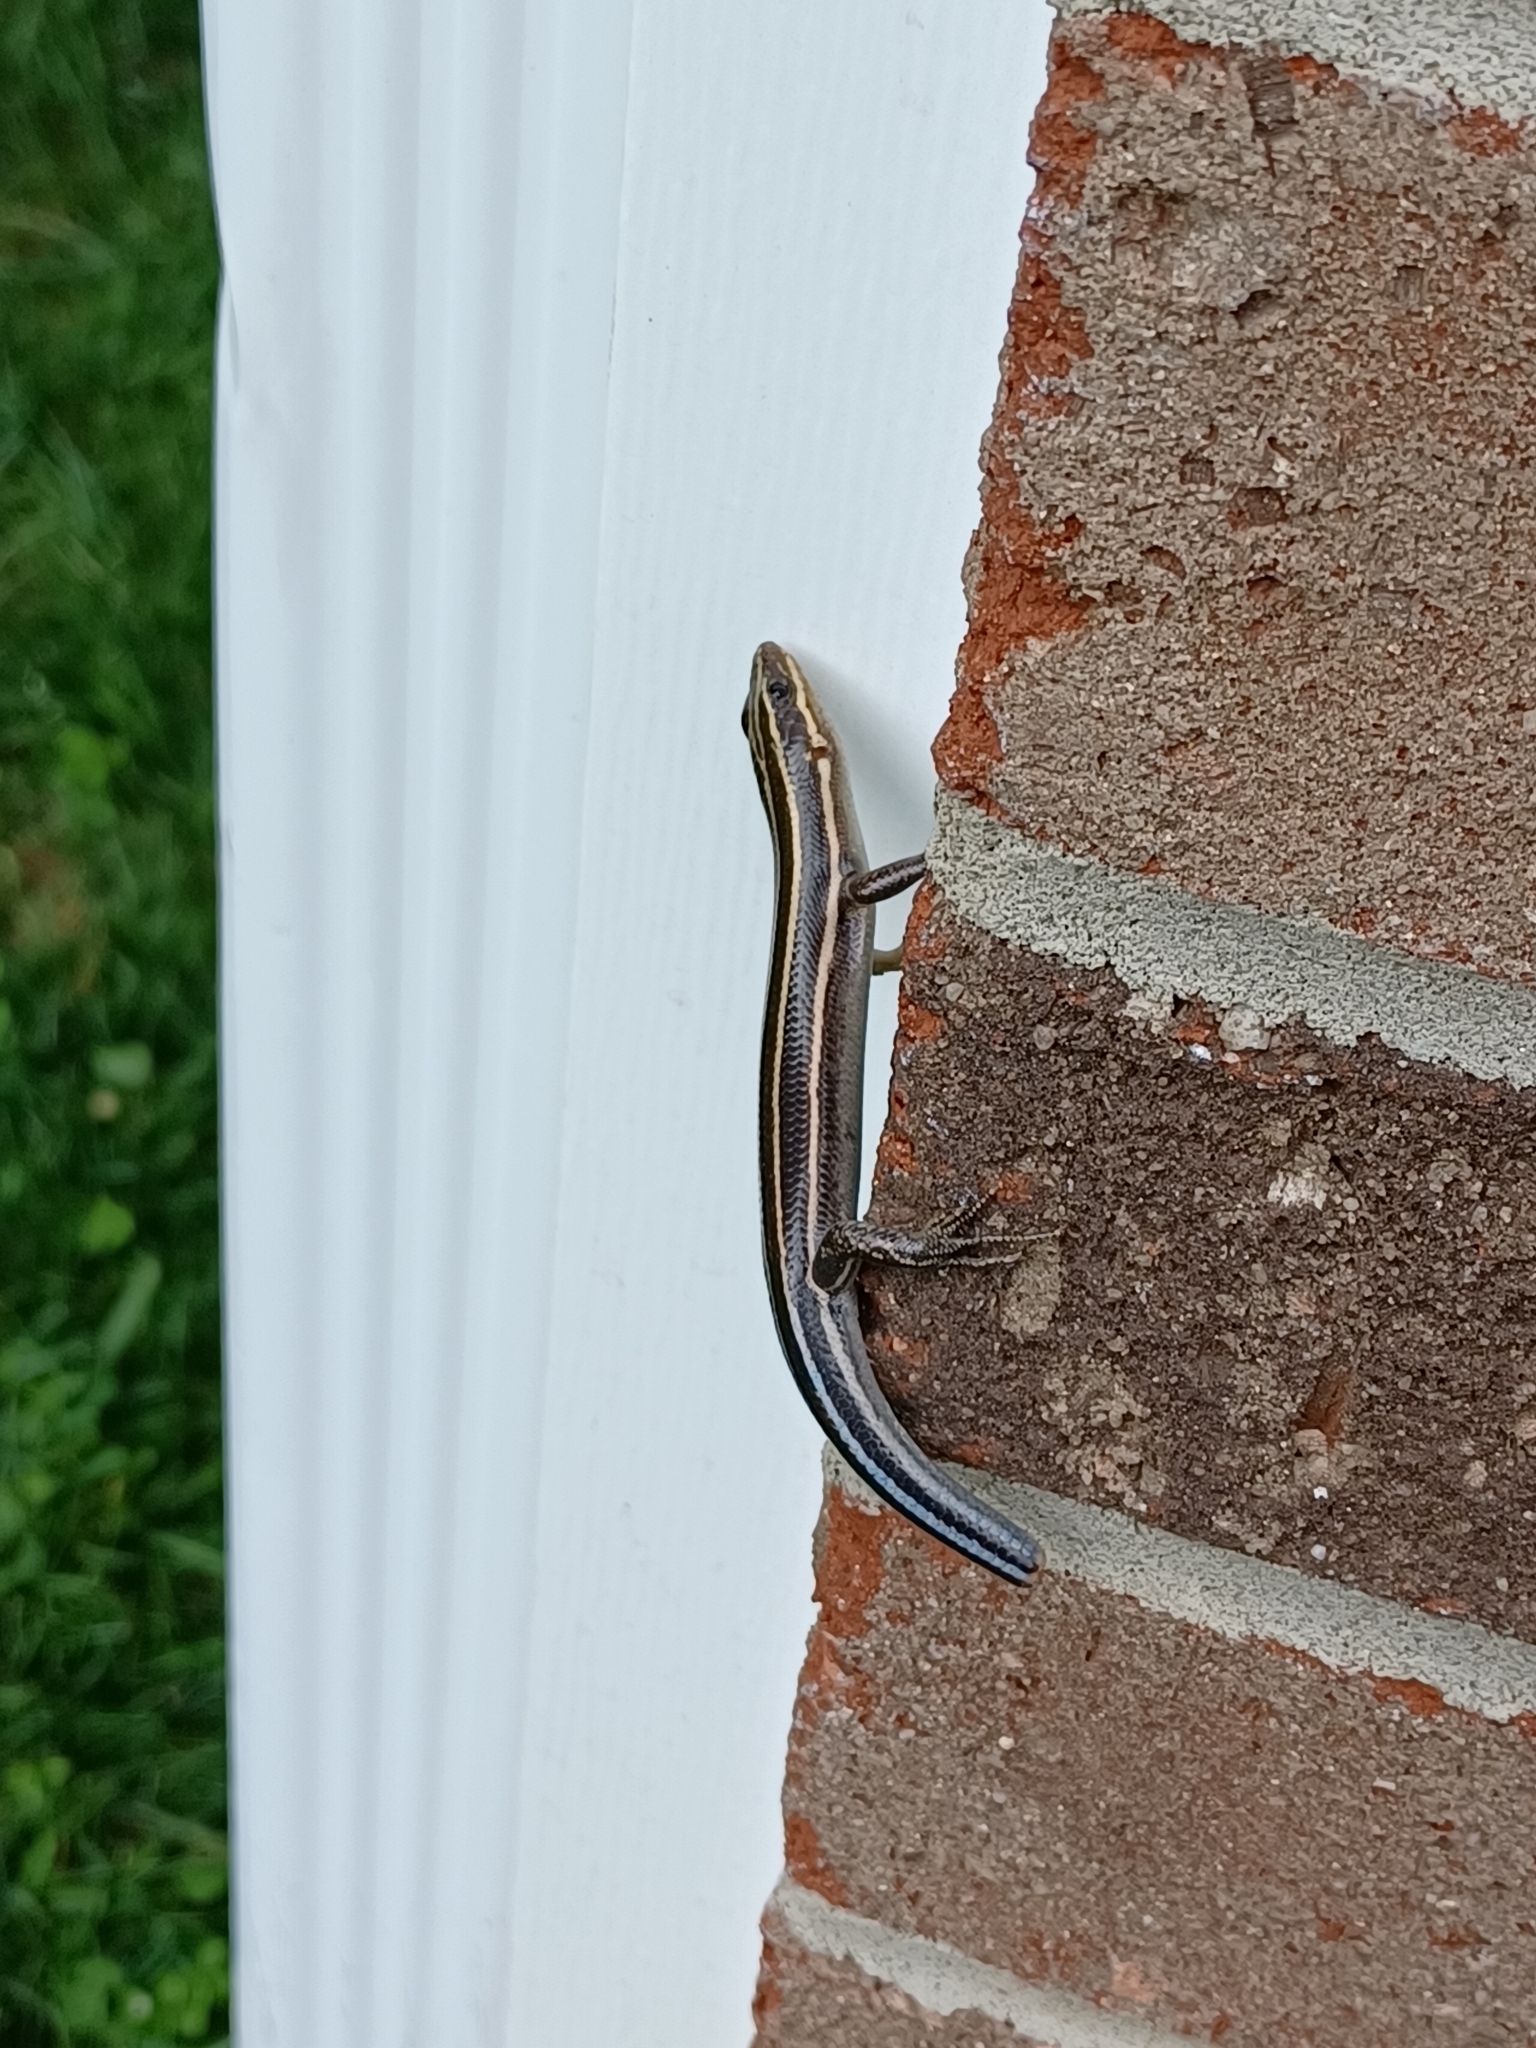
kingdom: Animalia
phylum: Chordata
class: Squamata
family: Scincidae
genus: Plestiodon
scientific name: Plestiodon fasciatus
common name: Five-lined skink
